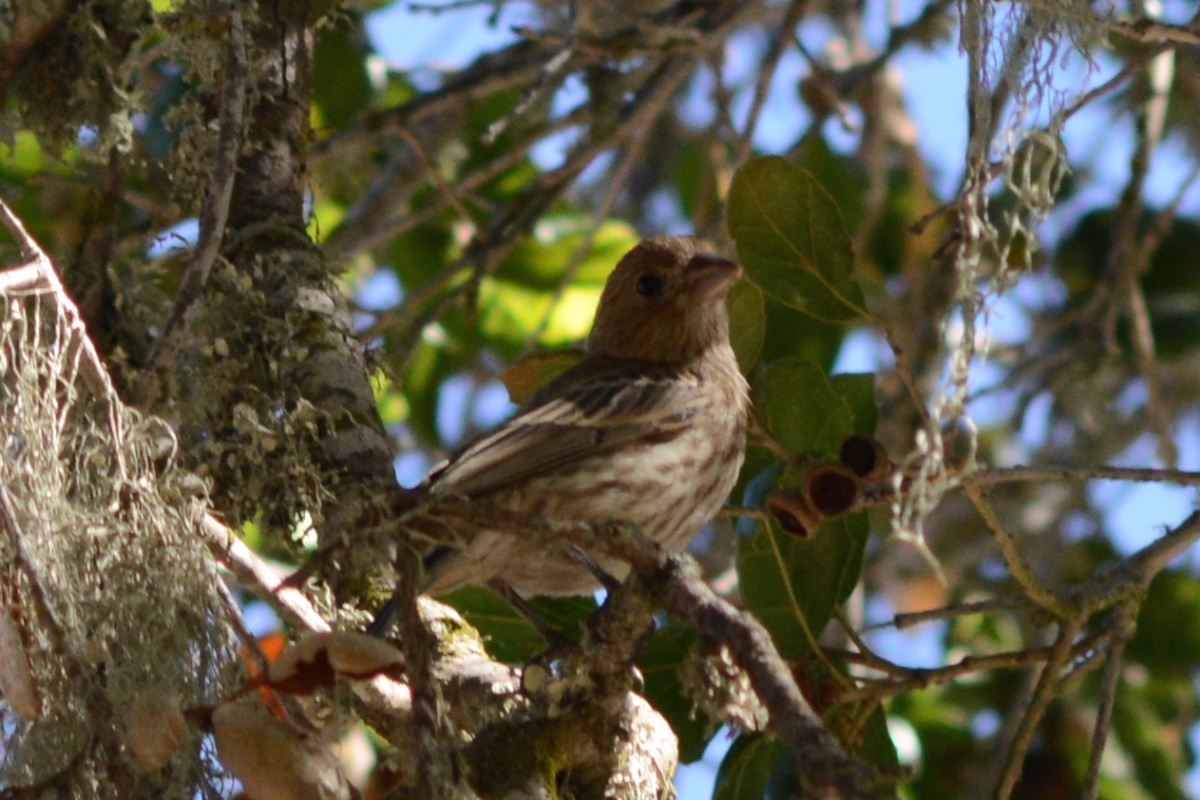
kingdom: Animalia
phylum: Chordata
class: Aves
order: Passeriformes
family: Fringillidae
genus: Haemorhous
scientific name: Haemorhous mexicanus
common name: House finch
